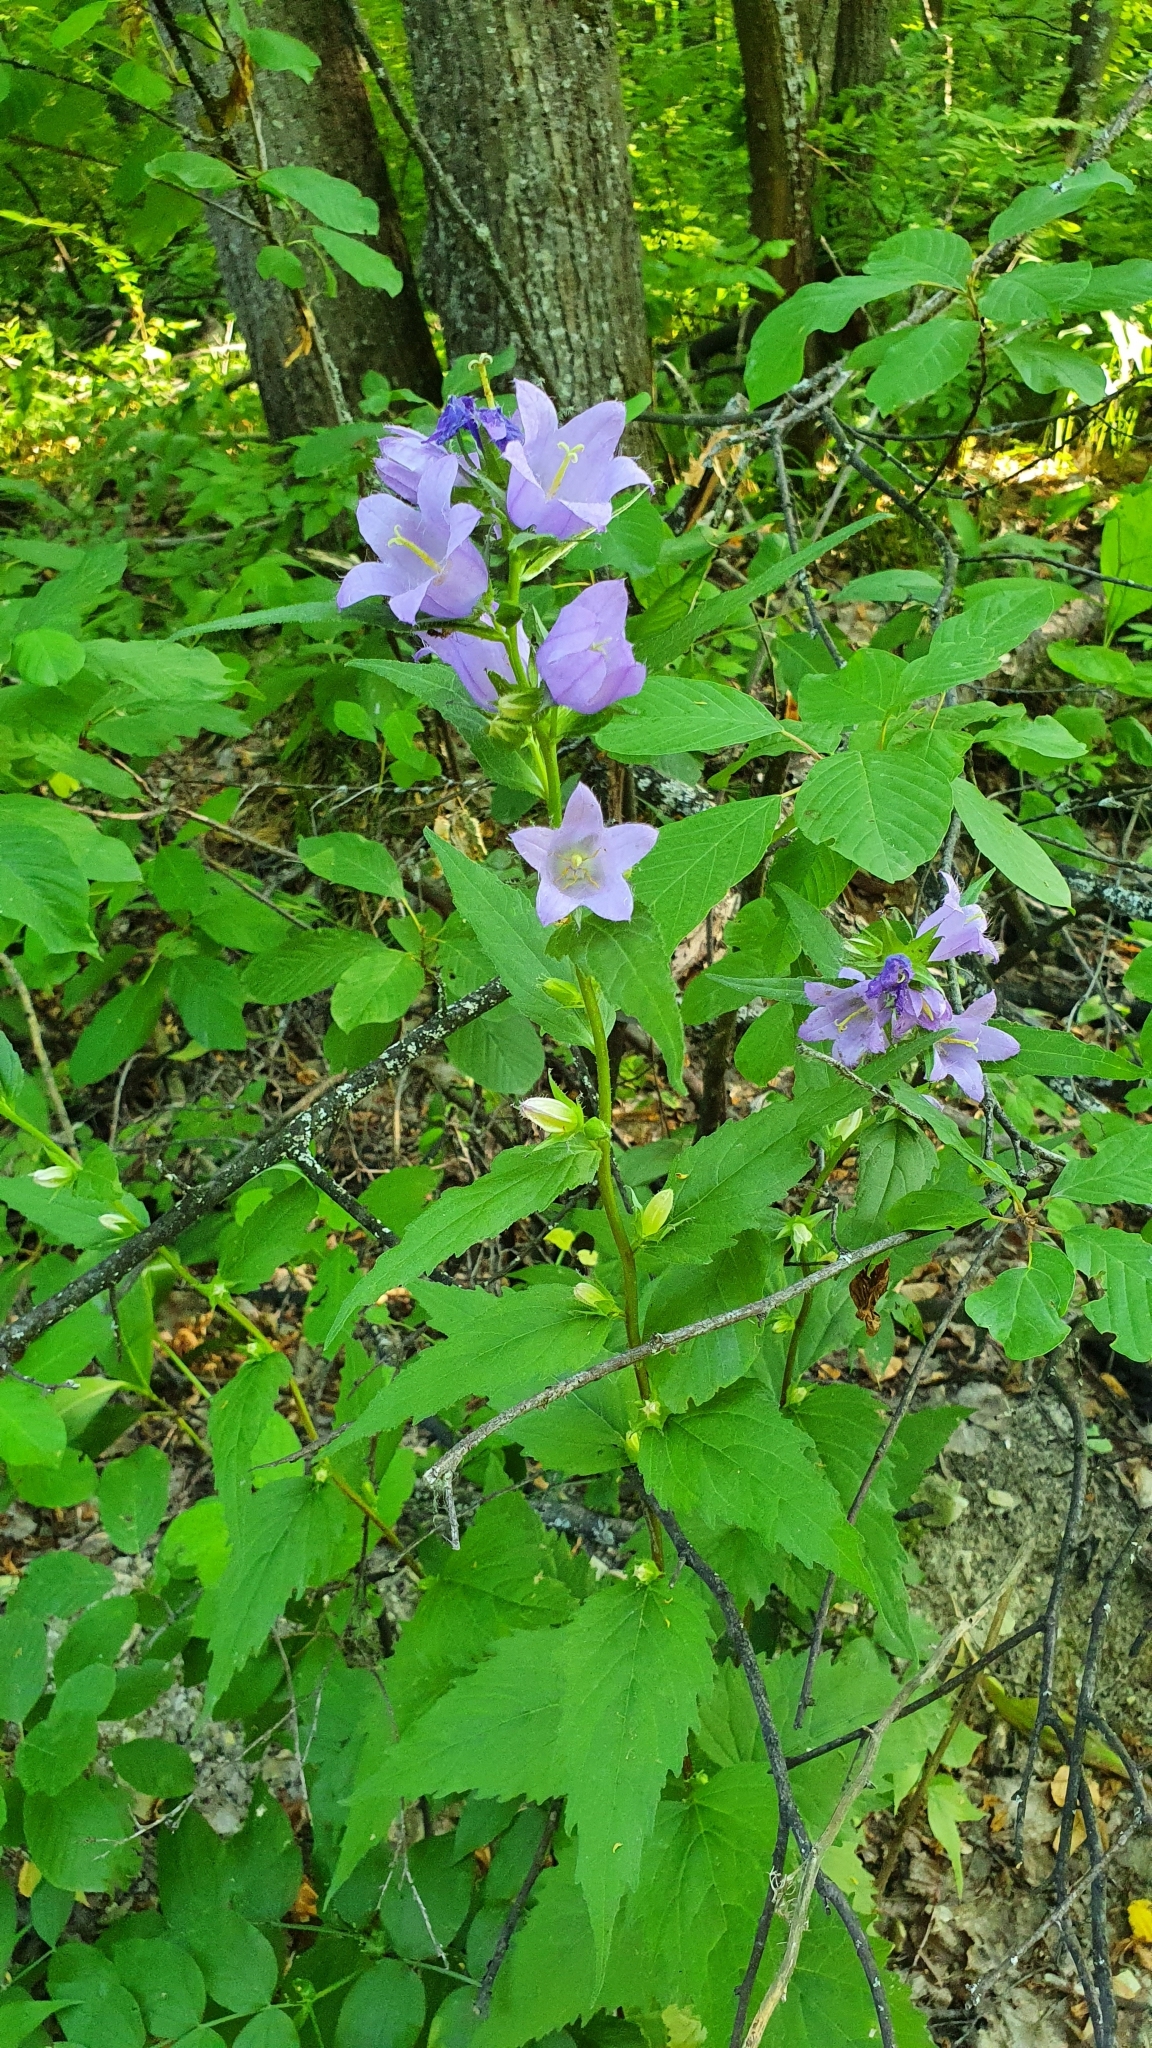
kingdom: Plantae
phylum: Tracheophyta
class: Magnoliopsida
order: Asterales
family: Campanulaceae
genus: Campanula
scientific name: Campanula trachelium
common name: Nettle-leaved bellflower
